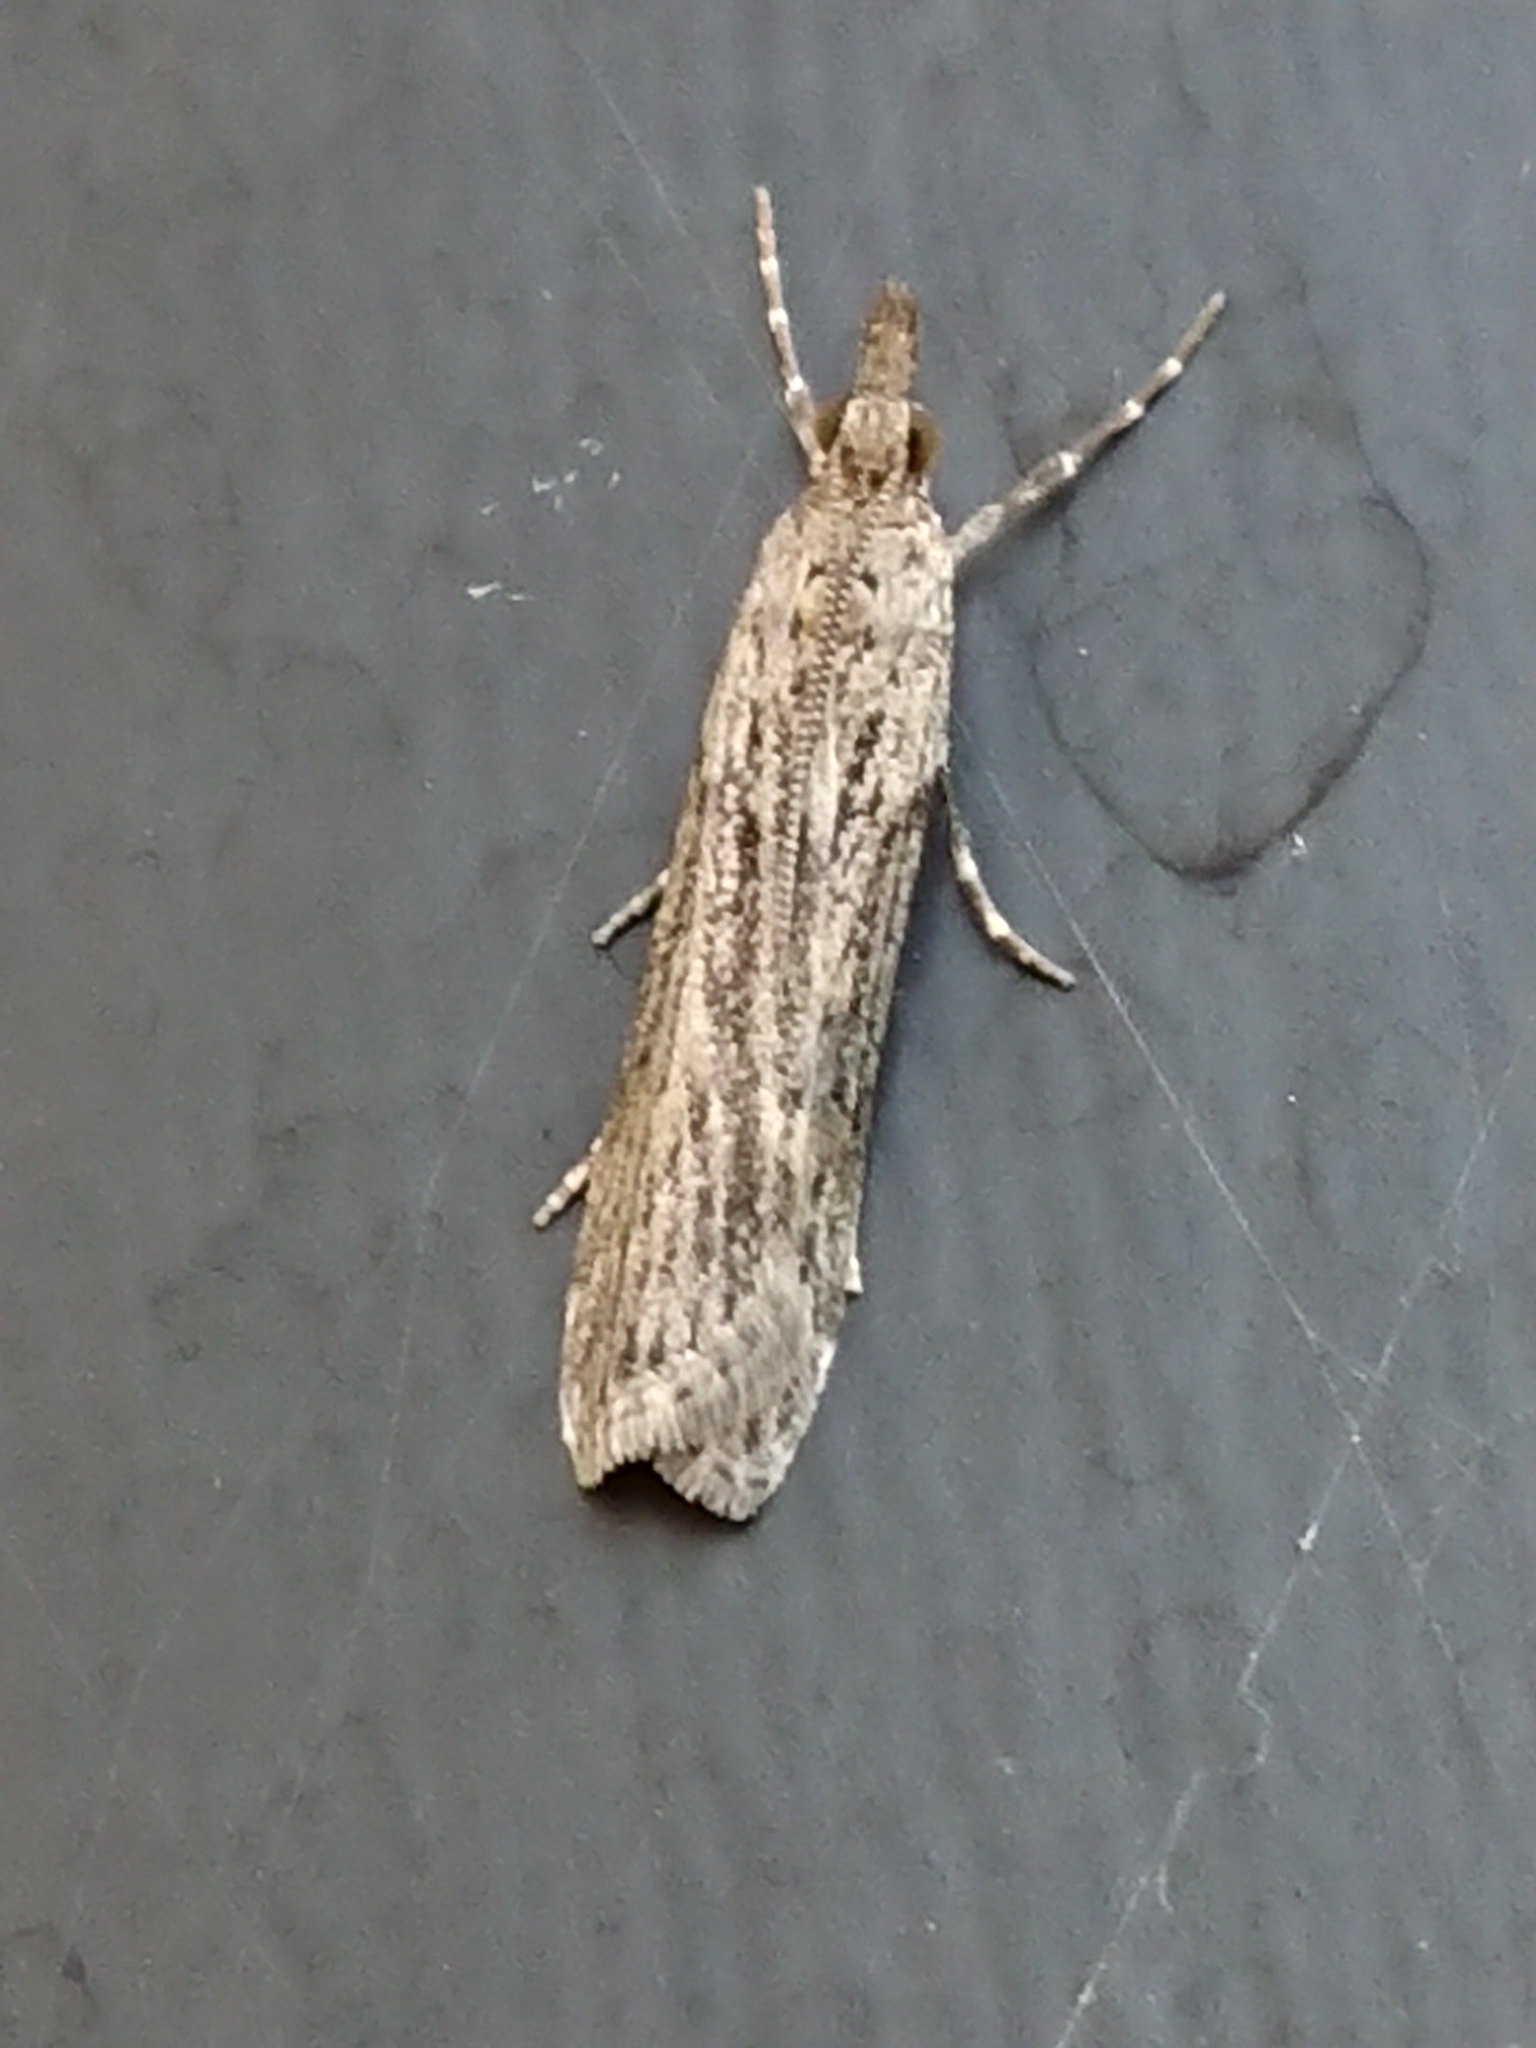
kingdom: Animalia
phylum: Arthropoda
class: Insecta
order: Lepidoptera
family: Crambidae
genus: Eudonia
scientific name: Eudonia atmogramma
